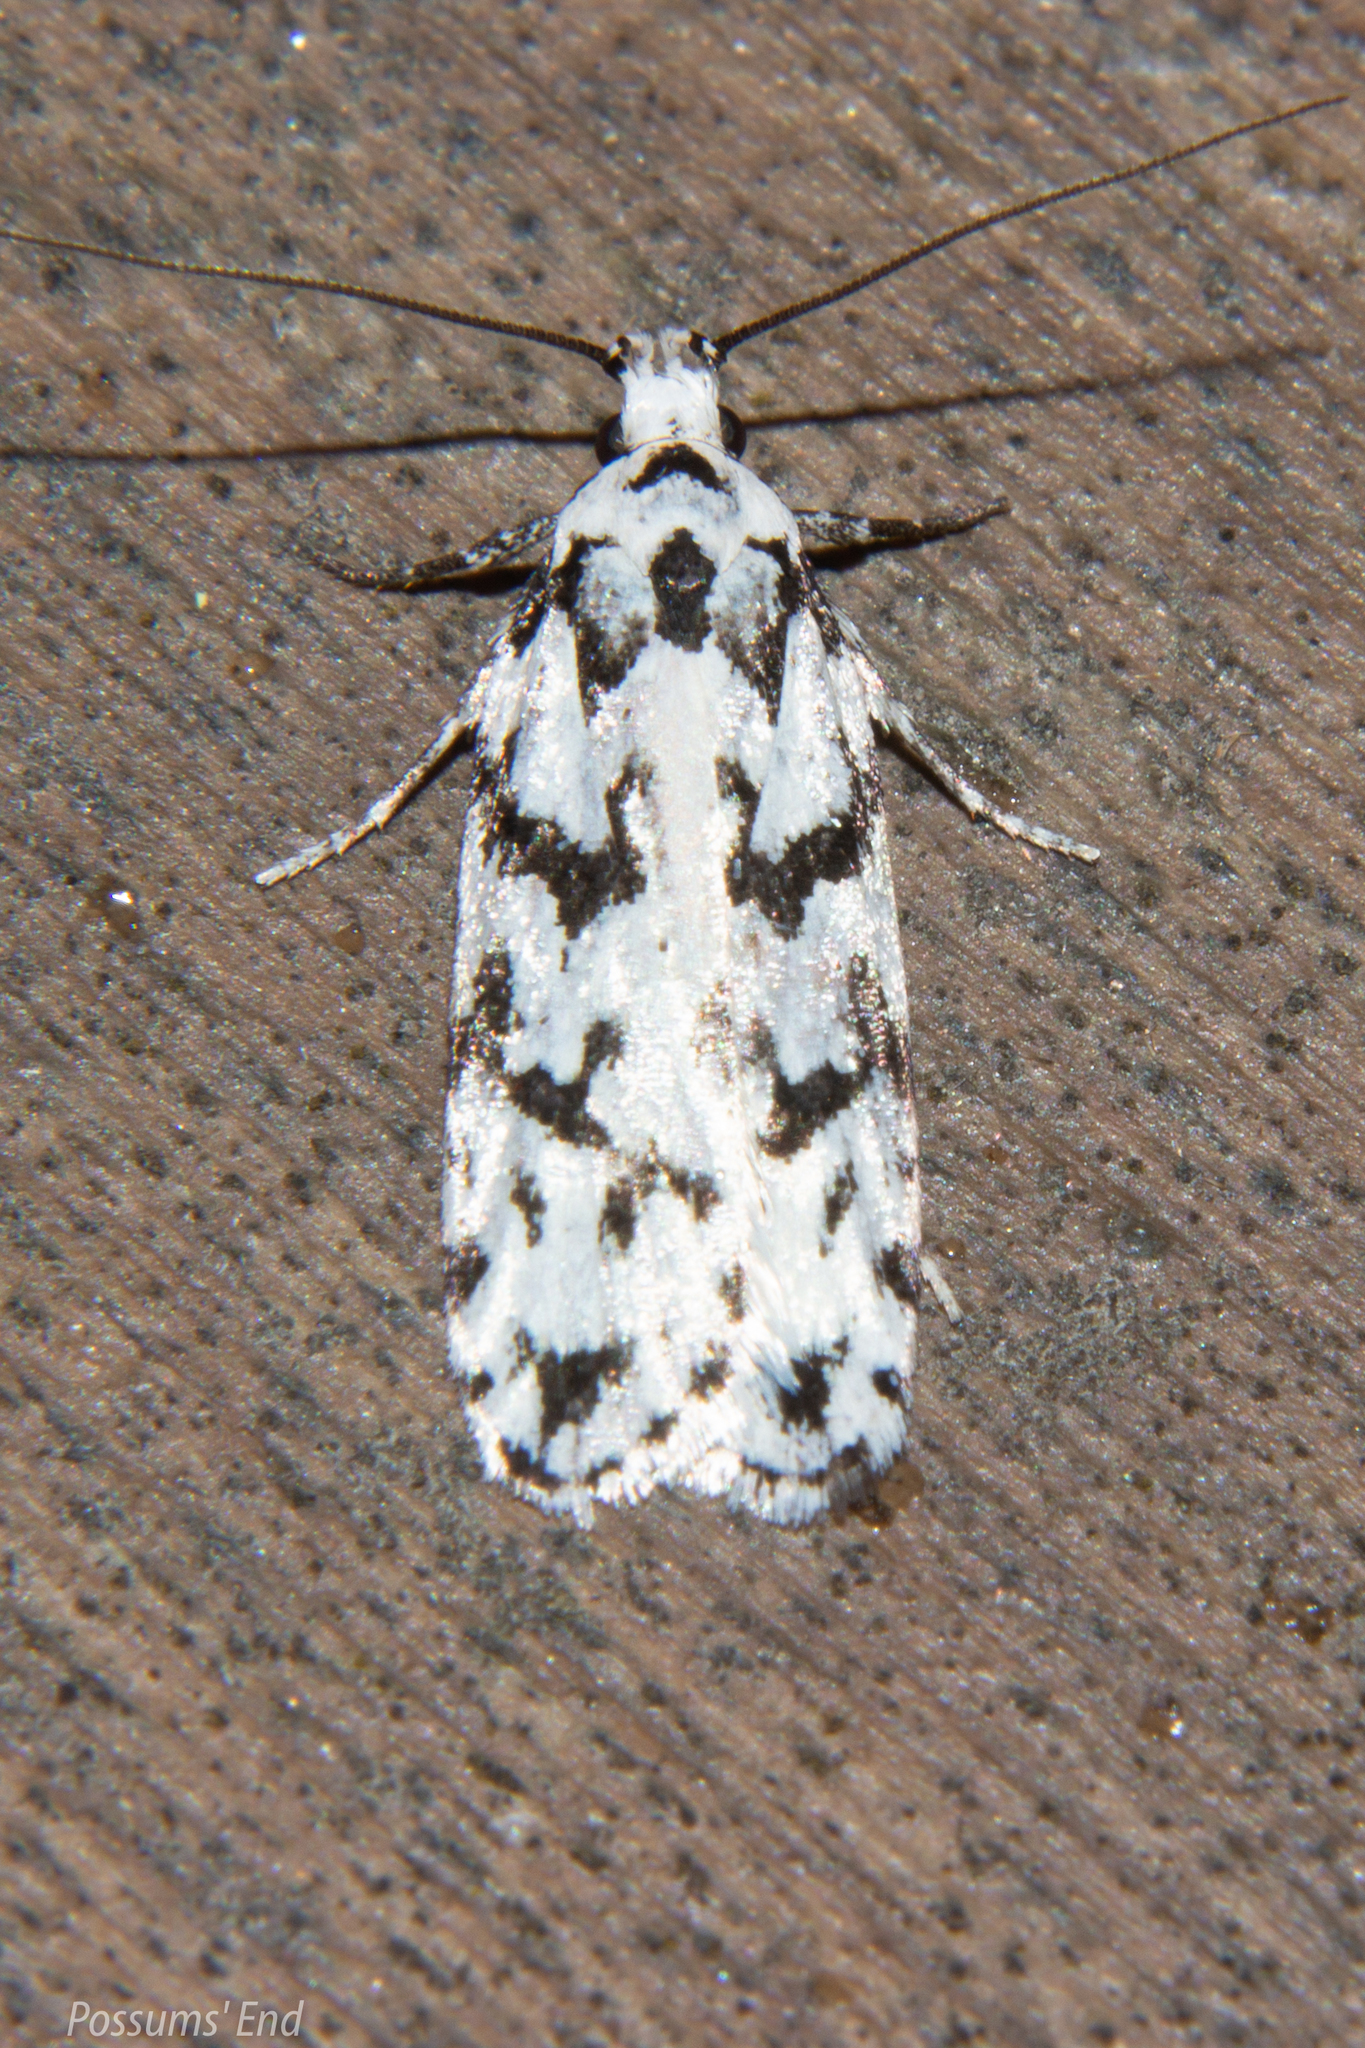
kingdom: Animalia
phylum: Arthropoda
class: Insecta
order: Lepidoptera
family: Oecophoridae
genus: Izatha
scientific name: Izatha katadiktya
